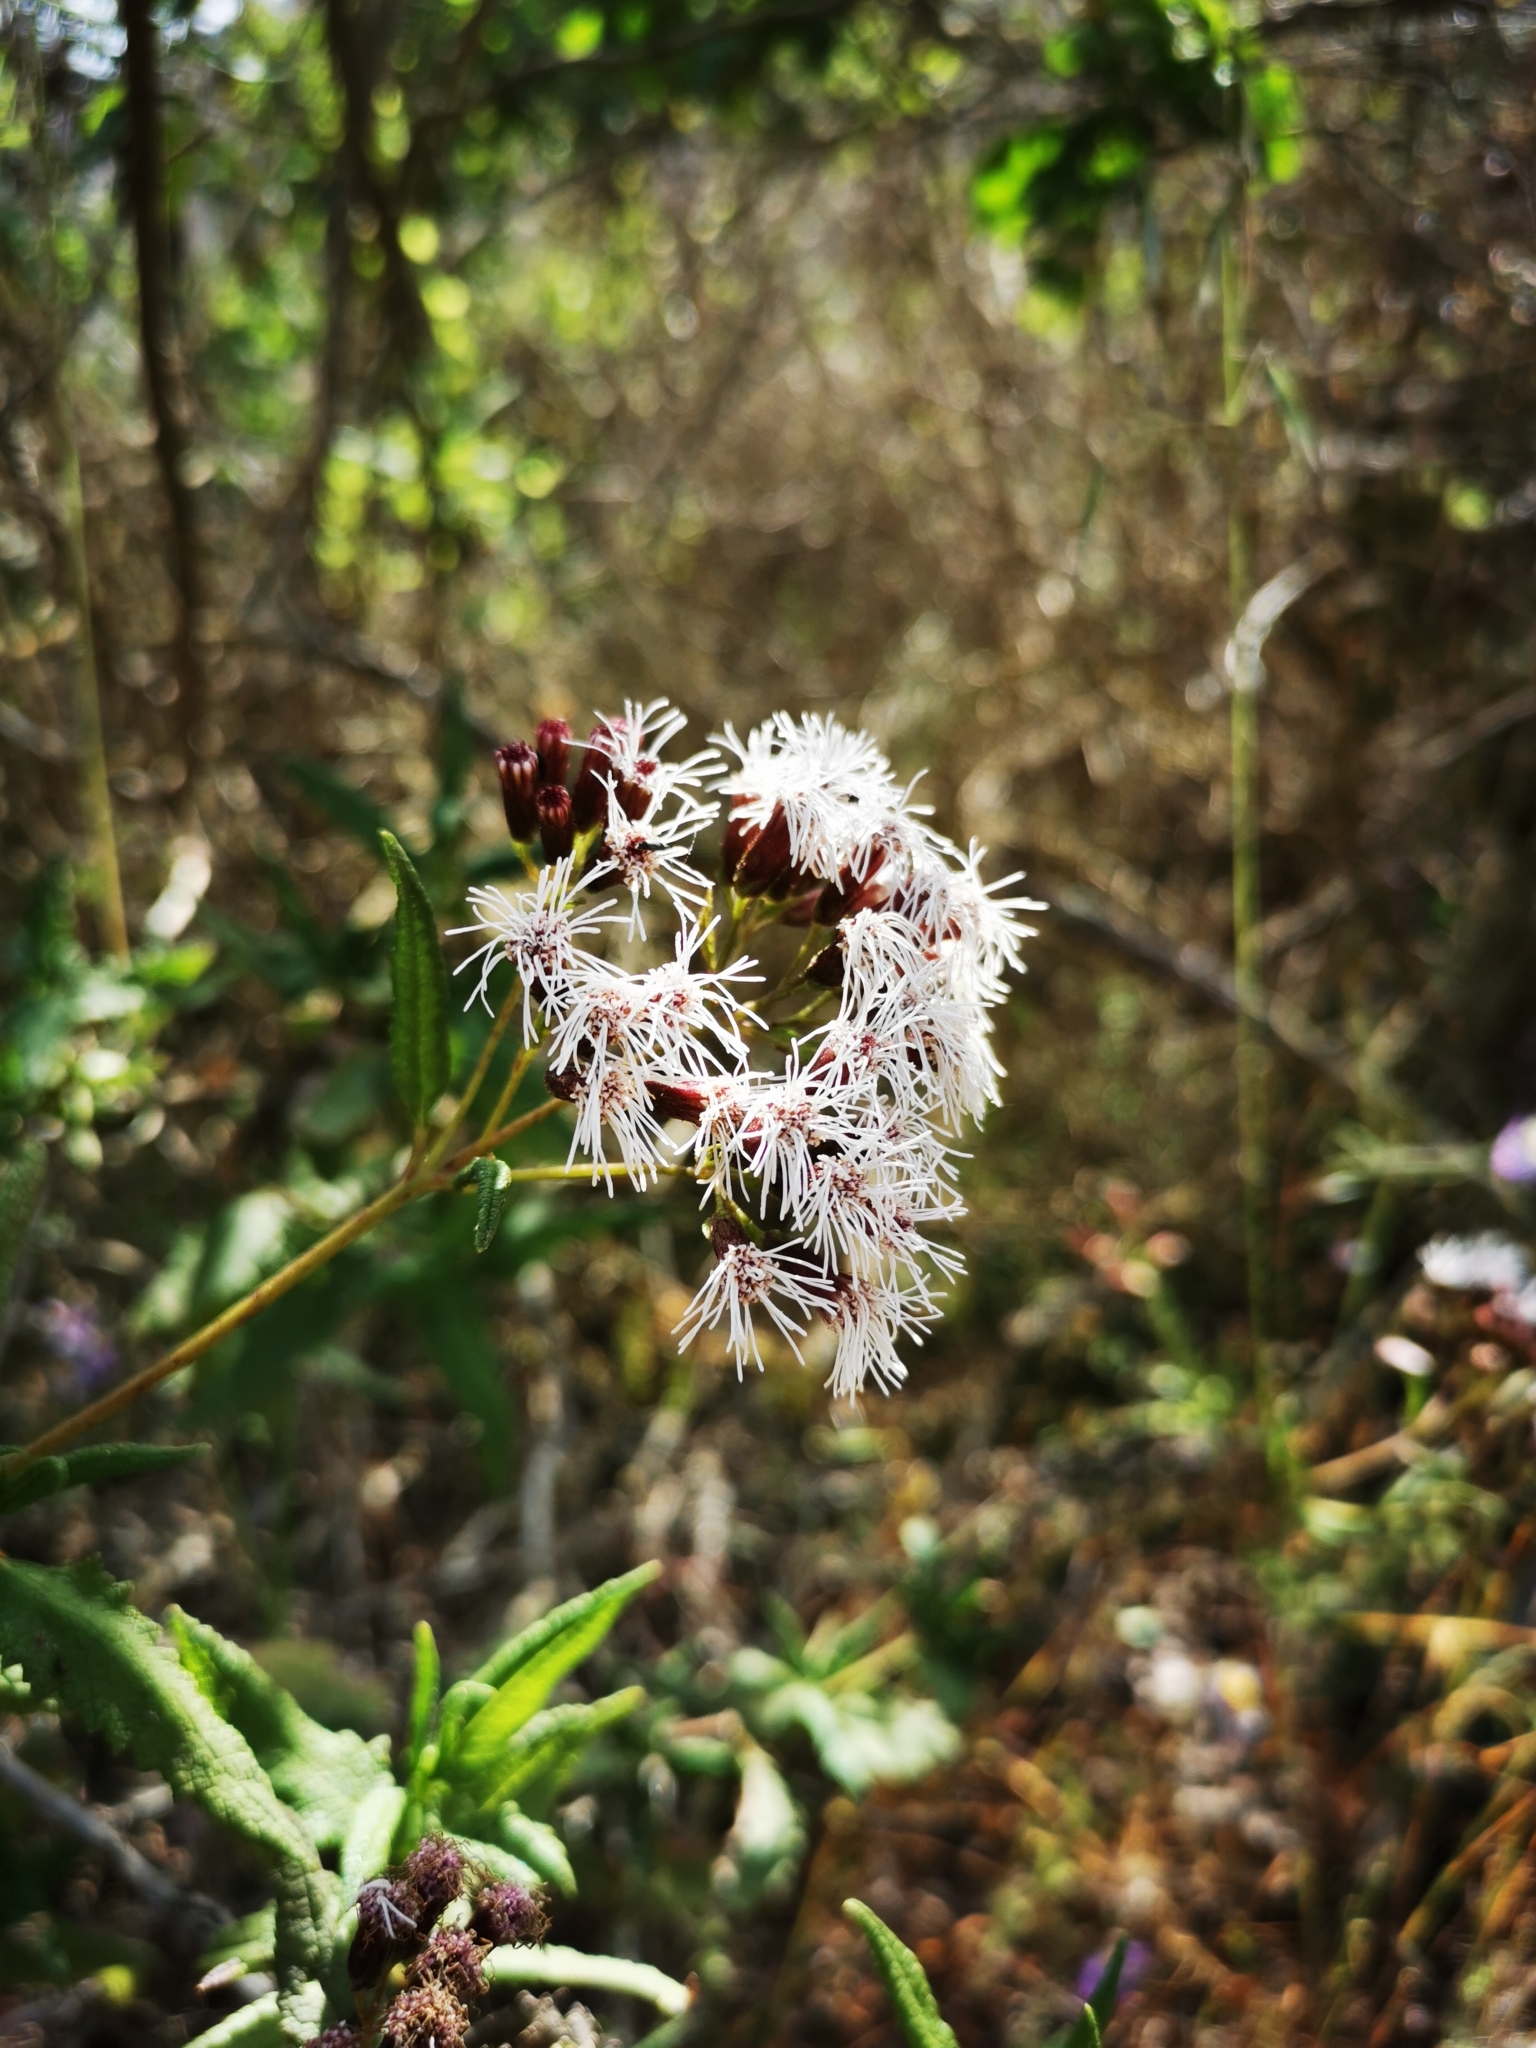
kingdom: Plantae
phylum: Tracheophyta
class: Magnoliopsida
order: Asterales
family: Asteraceae
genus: Aristeguietia
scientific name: Aristeguietia salvia
